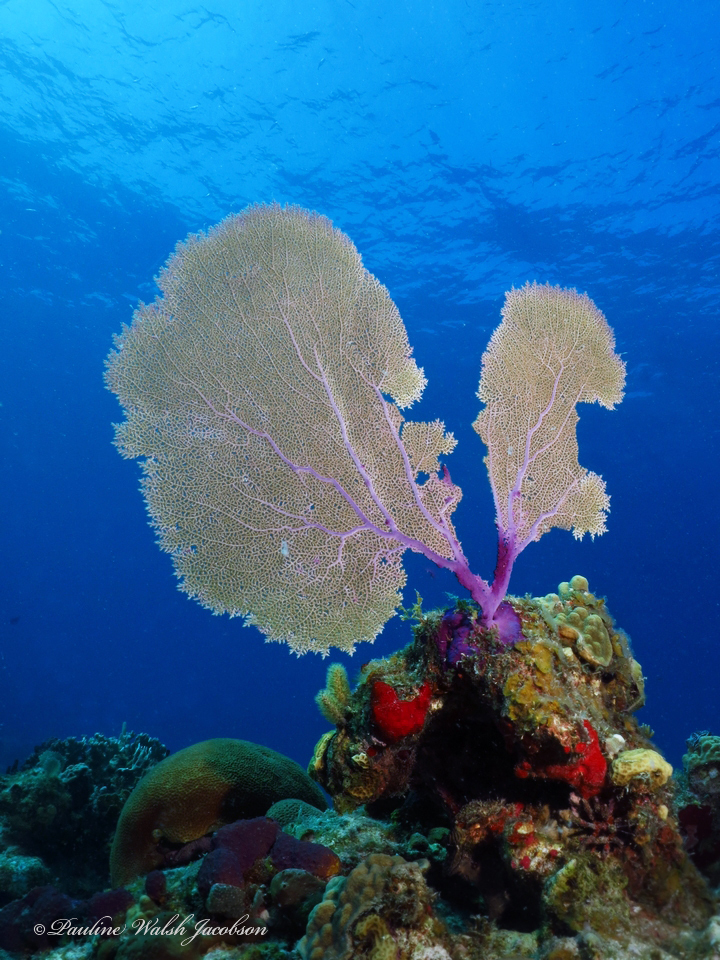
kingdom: Animalia
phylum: Cnidaria
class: Anthozoa
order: Malacalcyonacea
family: Gorgoniidae
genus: Gorgonia
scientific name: Gorgonia ventalina
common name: Common sea fan
